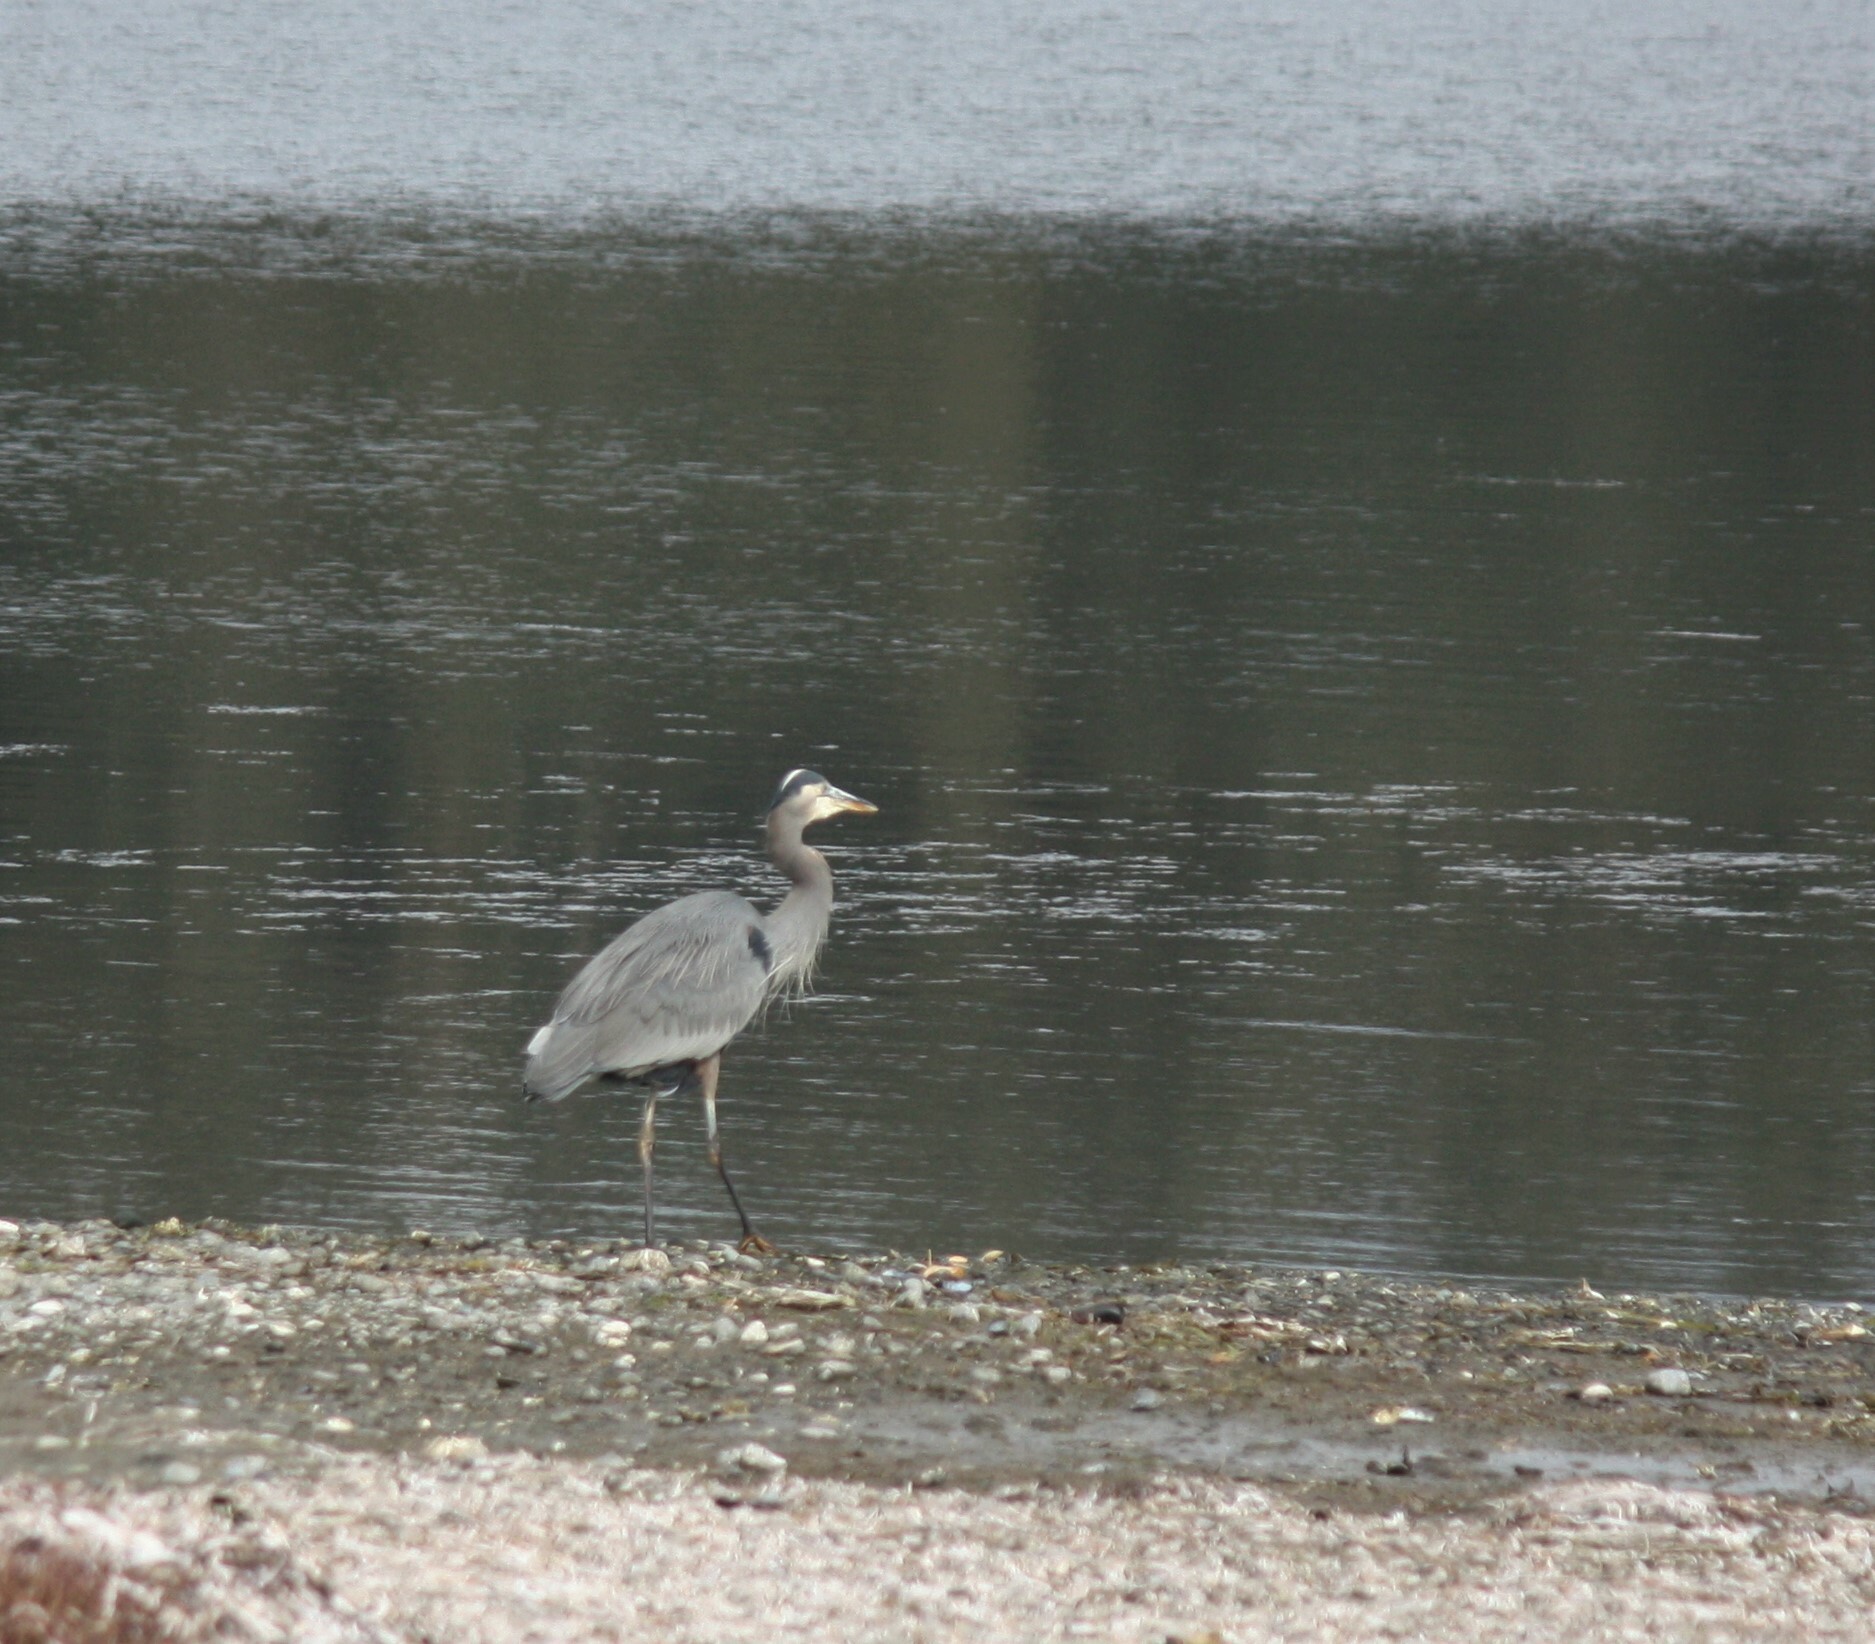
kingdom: Animalia
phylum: Chordata
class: Aves
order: Pelecaniformes
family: Ardeidae
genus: Ardea
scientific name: Ardea herodias
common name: Great blue heron
